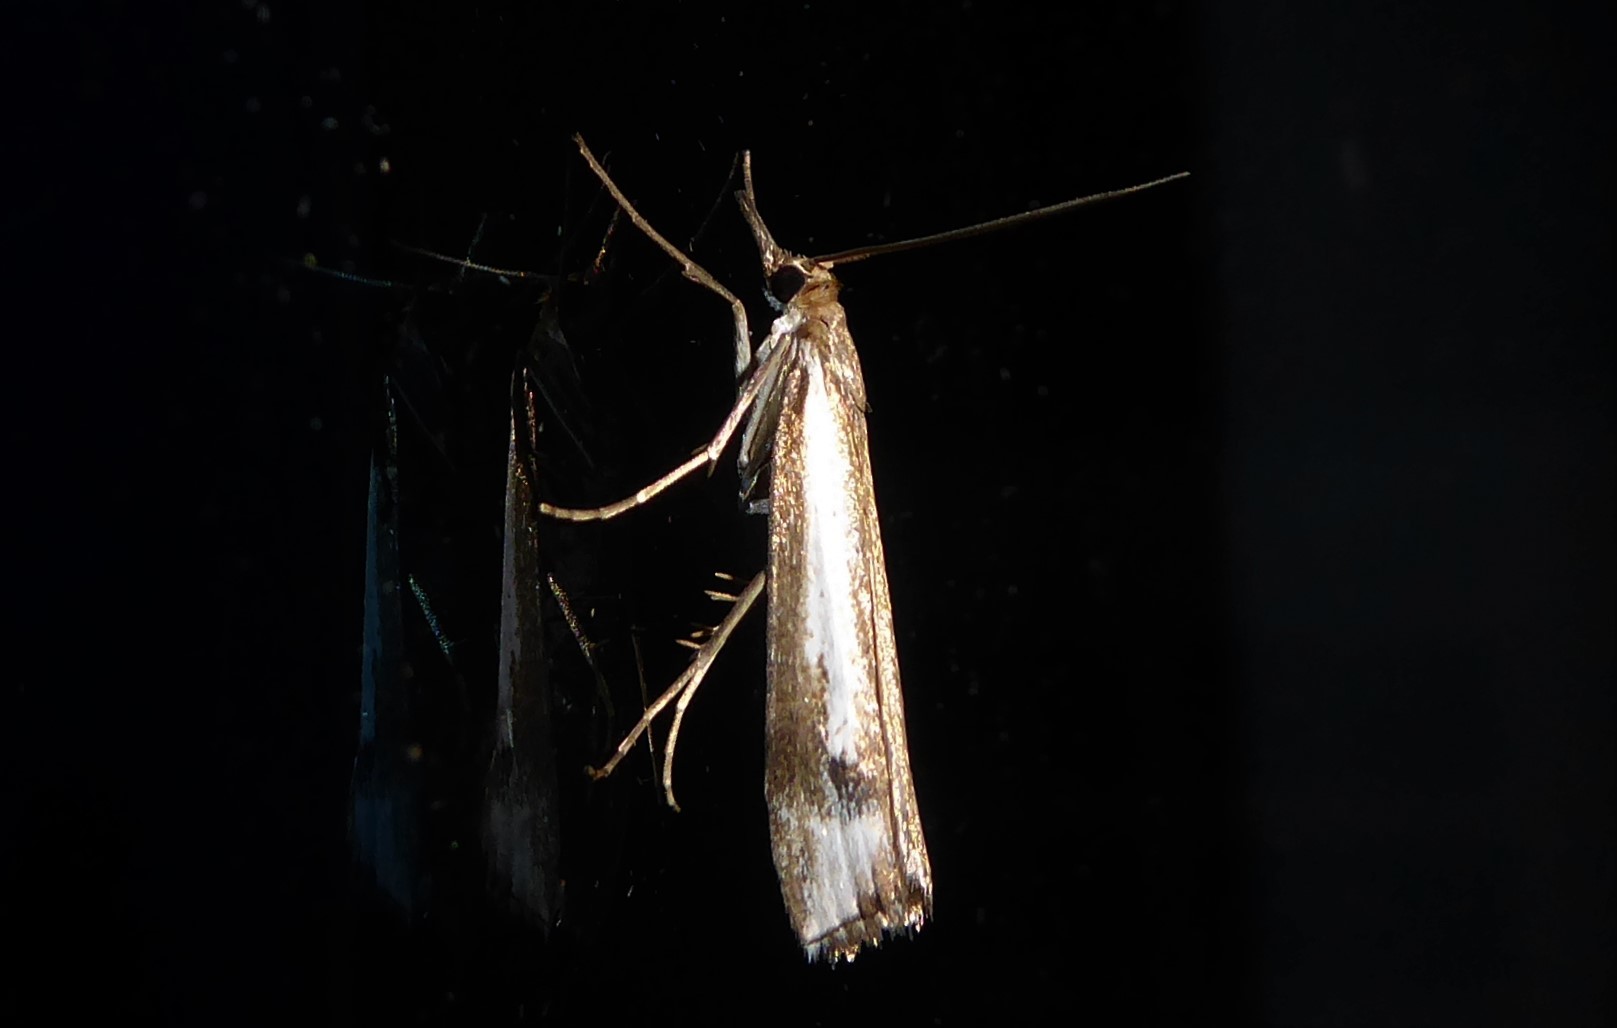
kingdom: Animalia
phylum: Arthropoda
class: Insecta
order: Lepidoptera
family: Crambidae
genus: Orocrambus
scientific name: Orocrambus vulgaris
